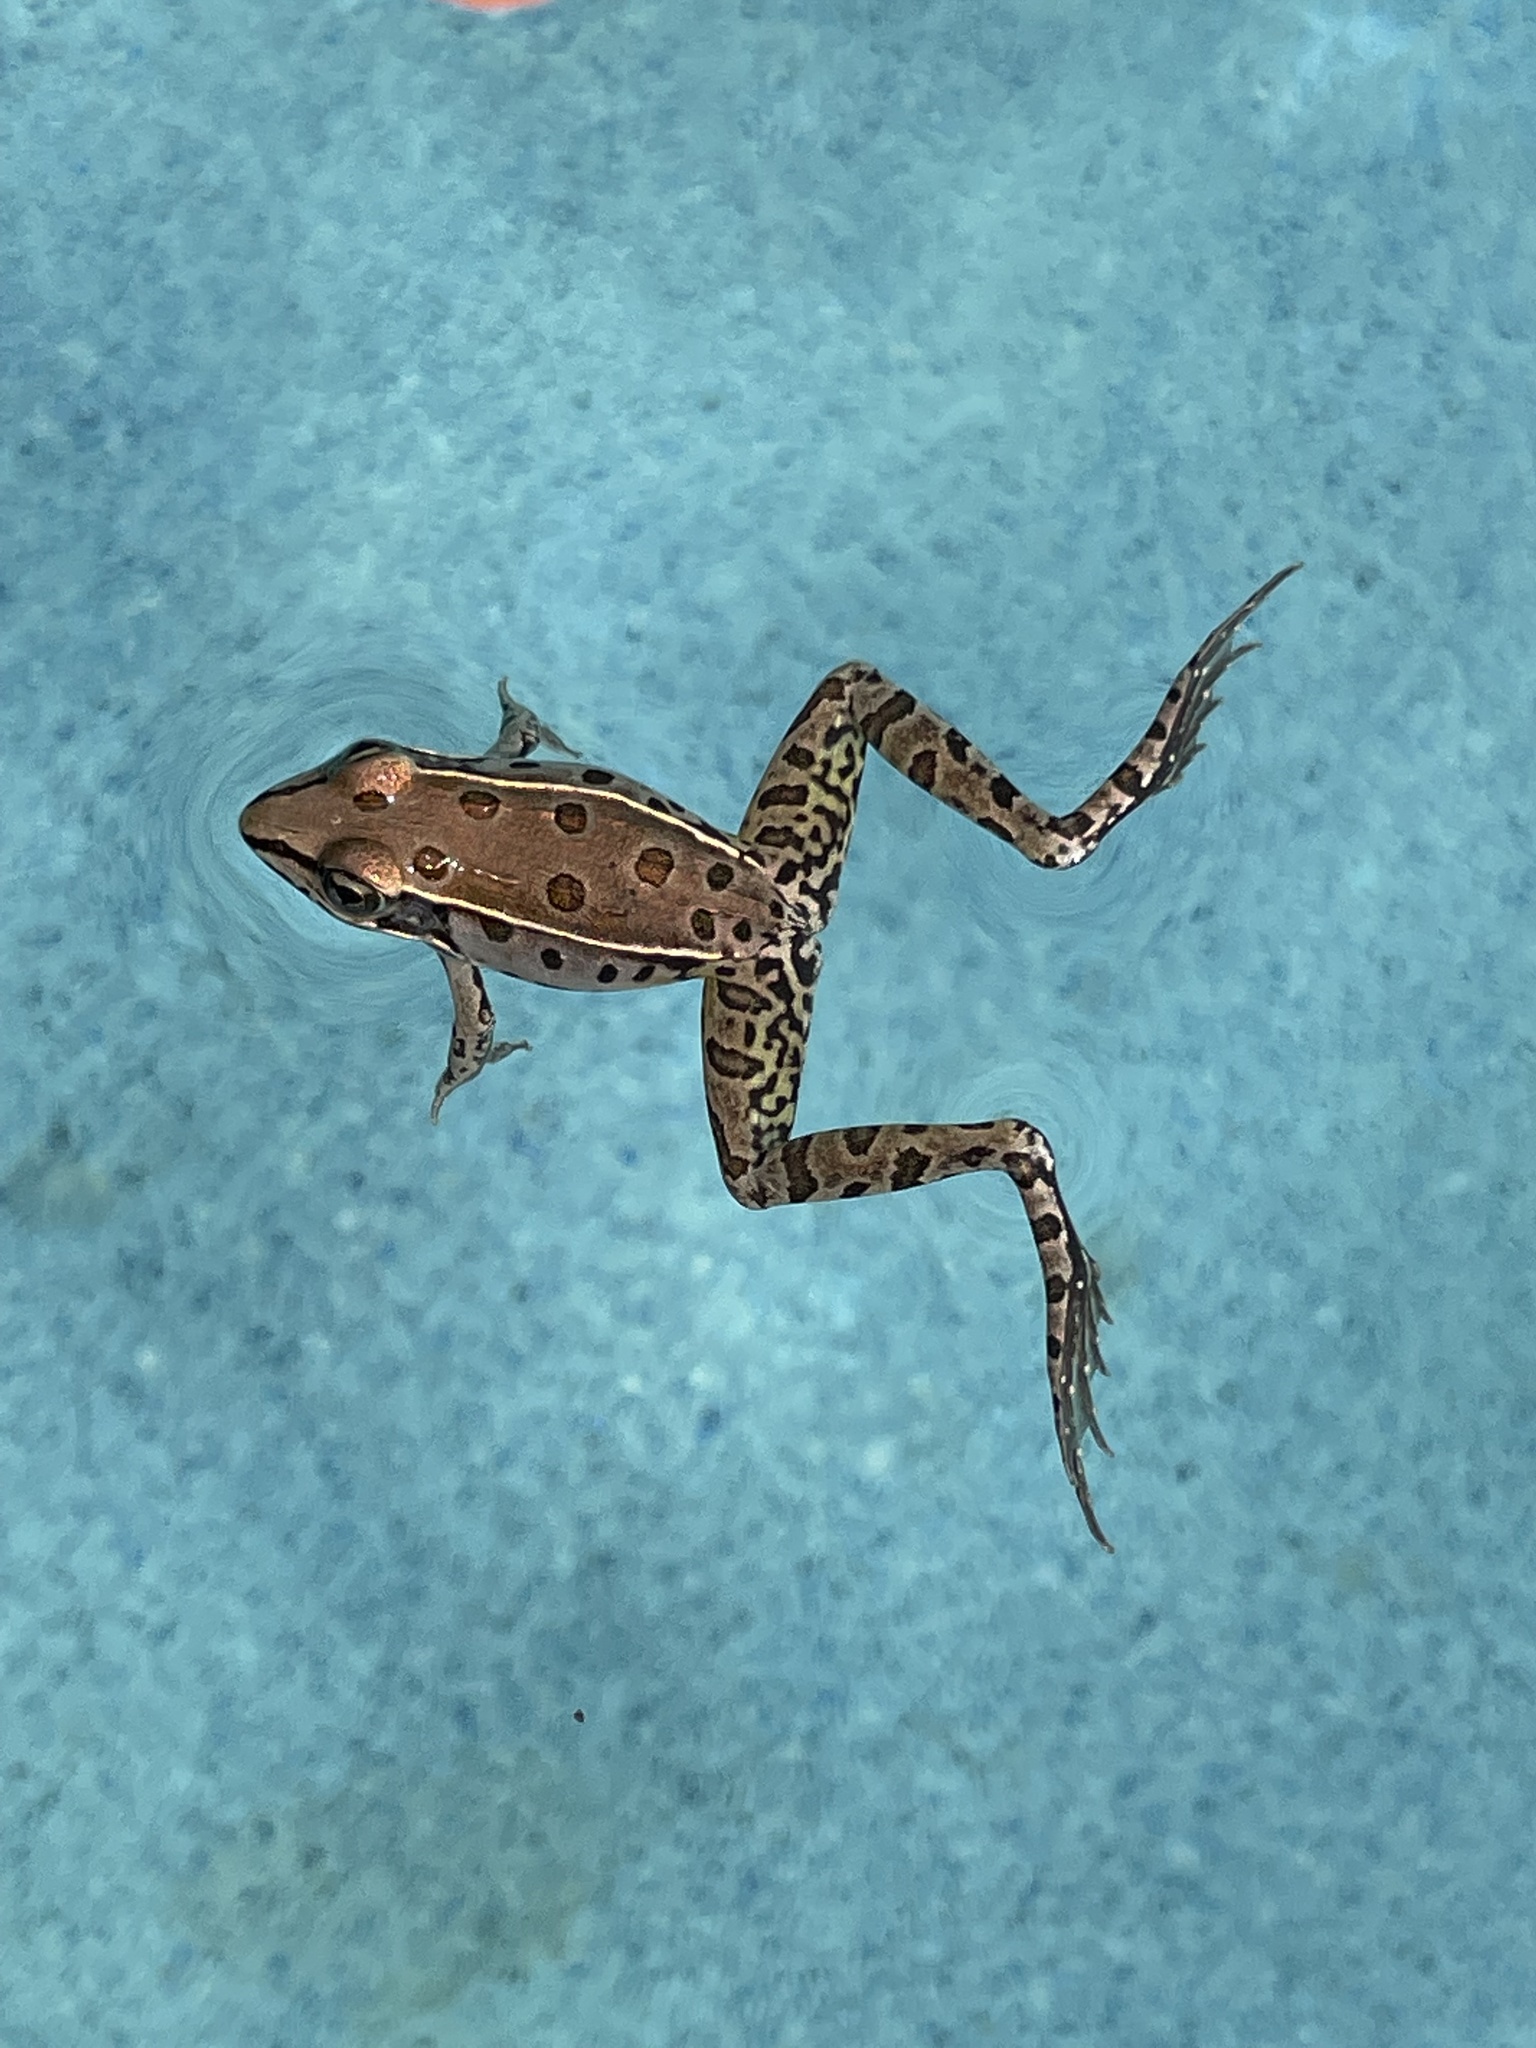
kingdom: Animalia
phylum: Chordata
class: Amphibia
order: Anura
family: Ranidae
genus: Lithobates
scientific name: Lithobates sphenocephalus
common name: Southern leopard frog
